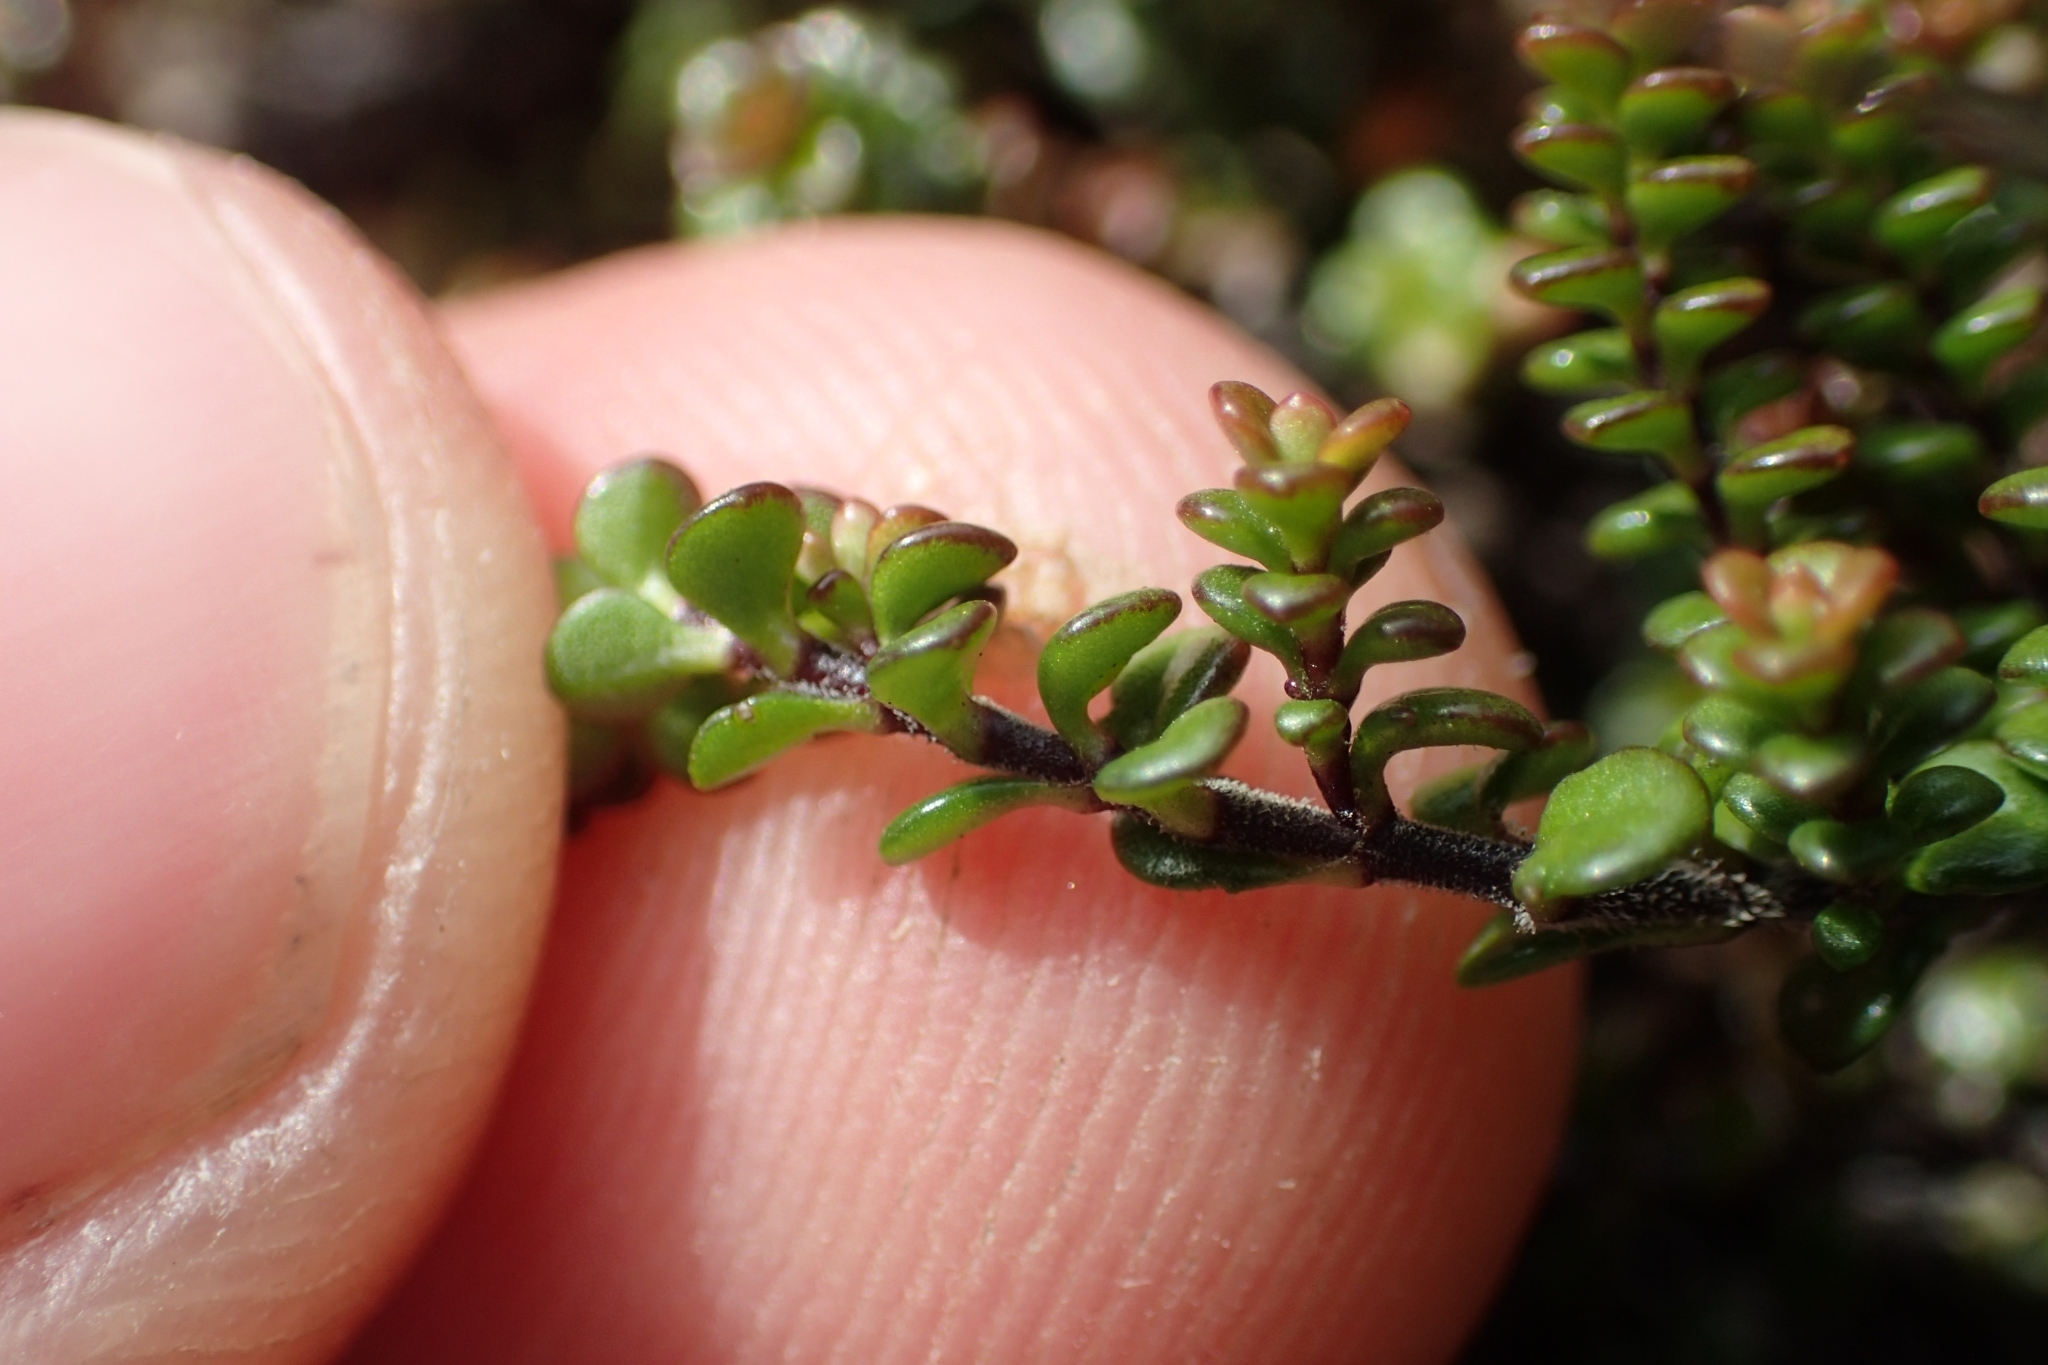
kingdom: Plantae
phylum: Tracheophyta
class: Magnoliopsida
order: Lamiales
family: Plantaginaceae
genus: Veronica
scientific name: Veronica decora
